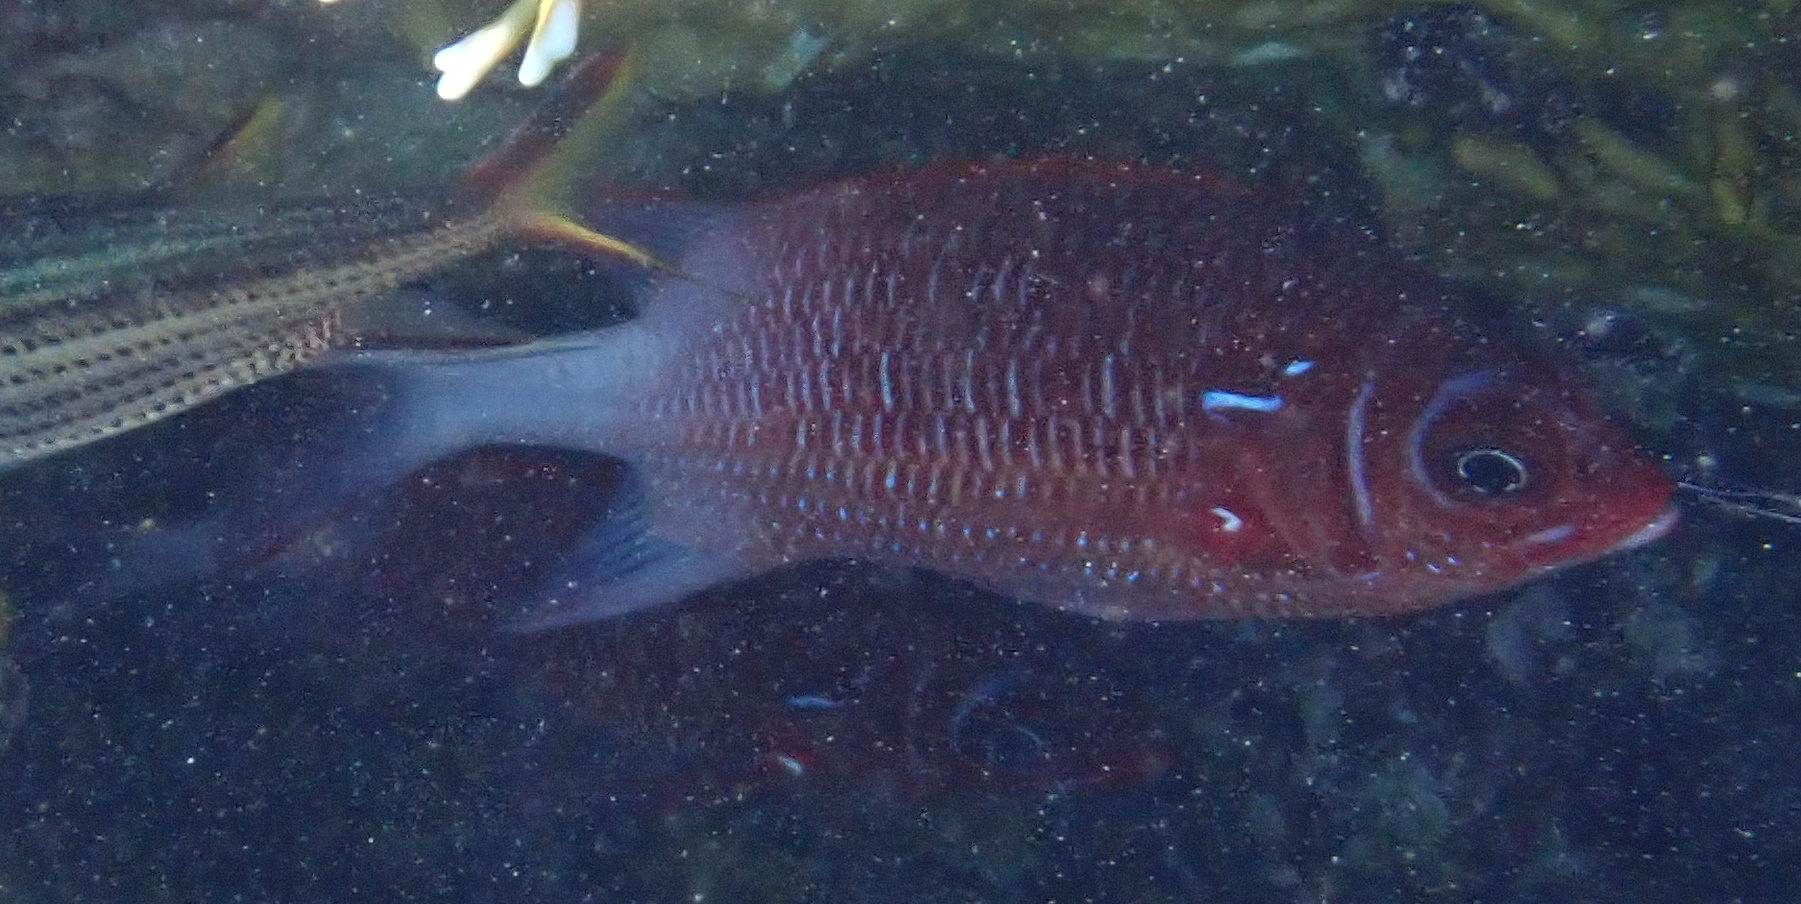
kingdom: Animalia
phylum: Chordata
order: Beryciformes
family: Holocentridae
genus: Sargocentron
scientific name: Sargocentron caudimaculatum
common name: Fanfin soldier
